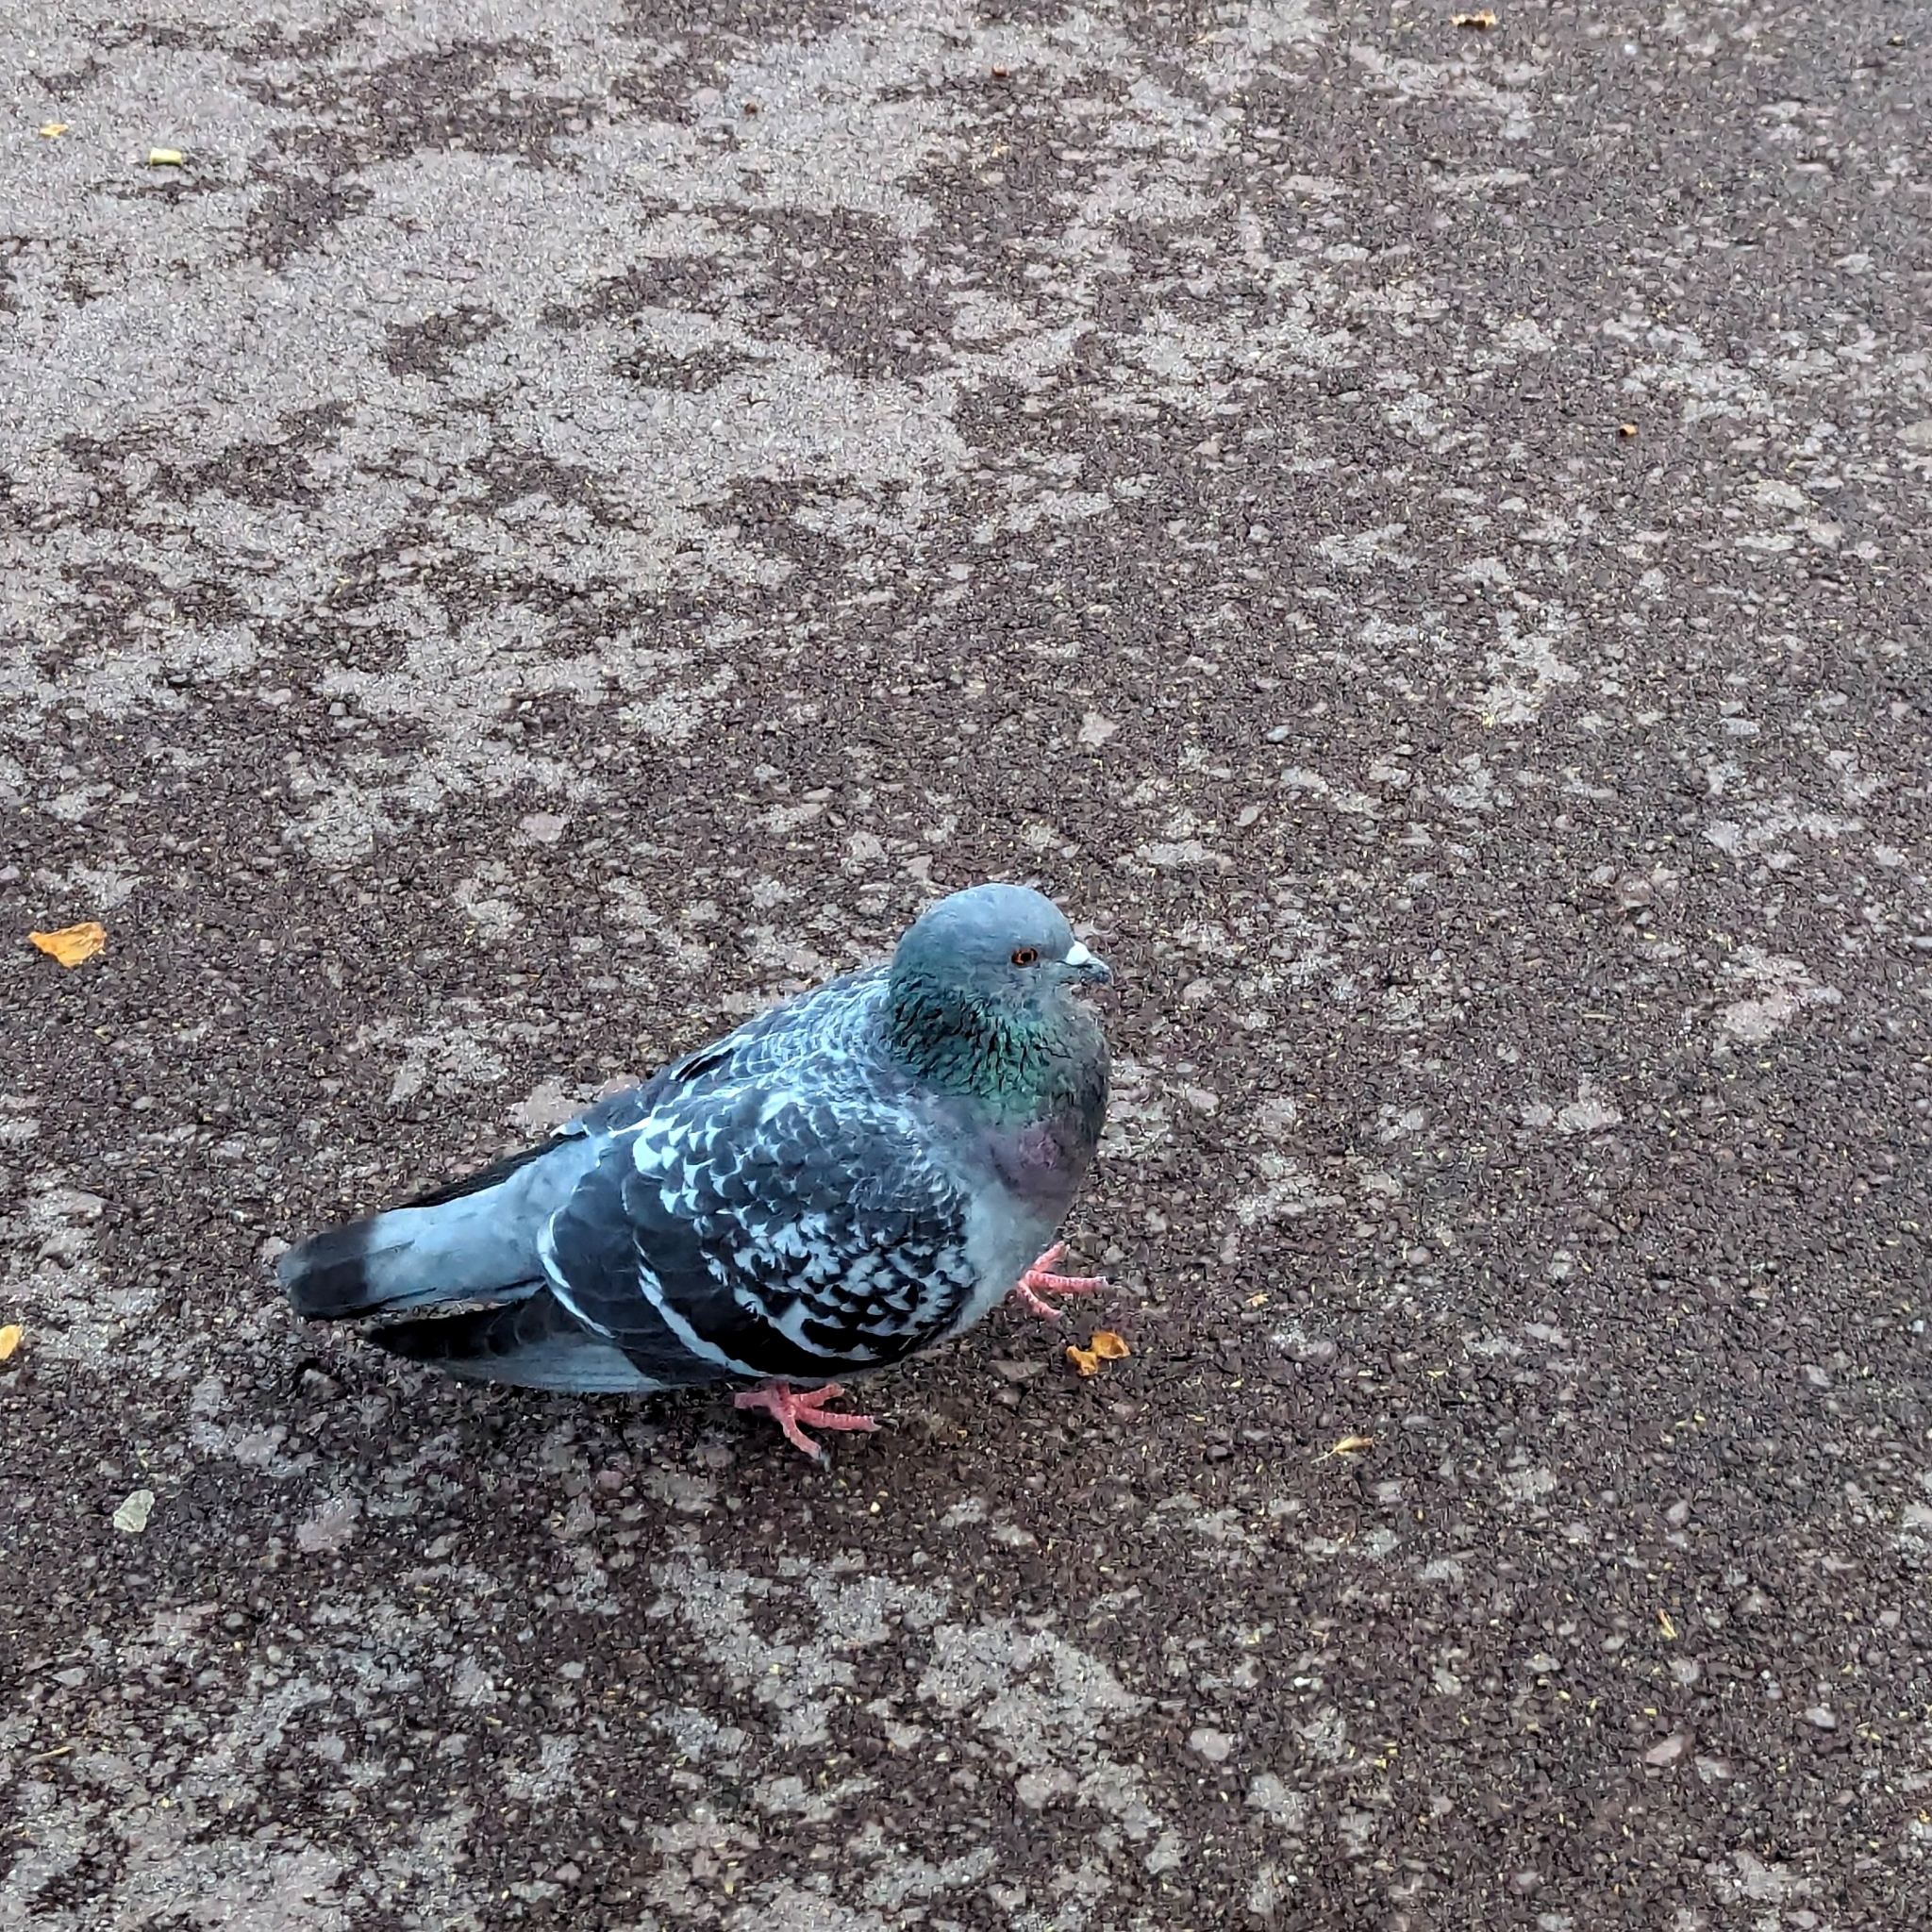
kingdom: Animalia
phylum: Chordata
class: Aves
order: Columbiformes
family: Columbidae
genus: Columba
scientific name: Columba livia
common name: Rock pigeon
